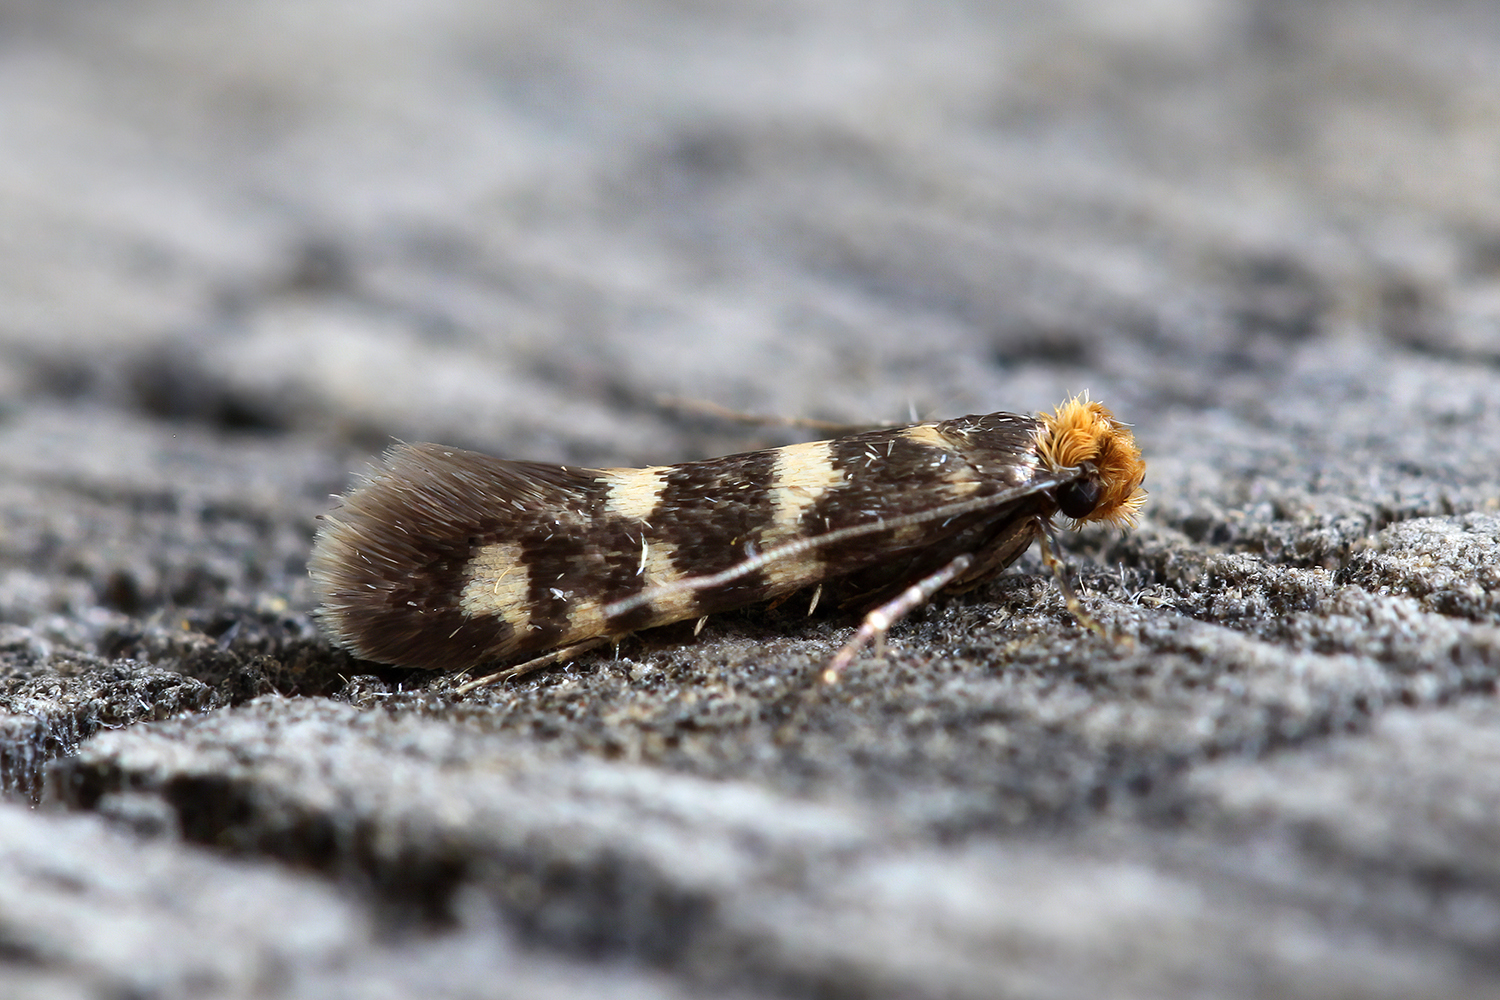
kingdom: Animalia
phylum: Arthropoda
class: Insecta
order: Lepidoptera
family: Tineidae
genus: Anemallota
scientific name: Anemallota praetoriella
